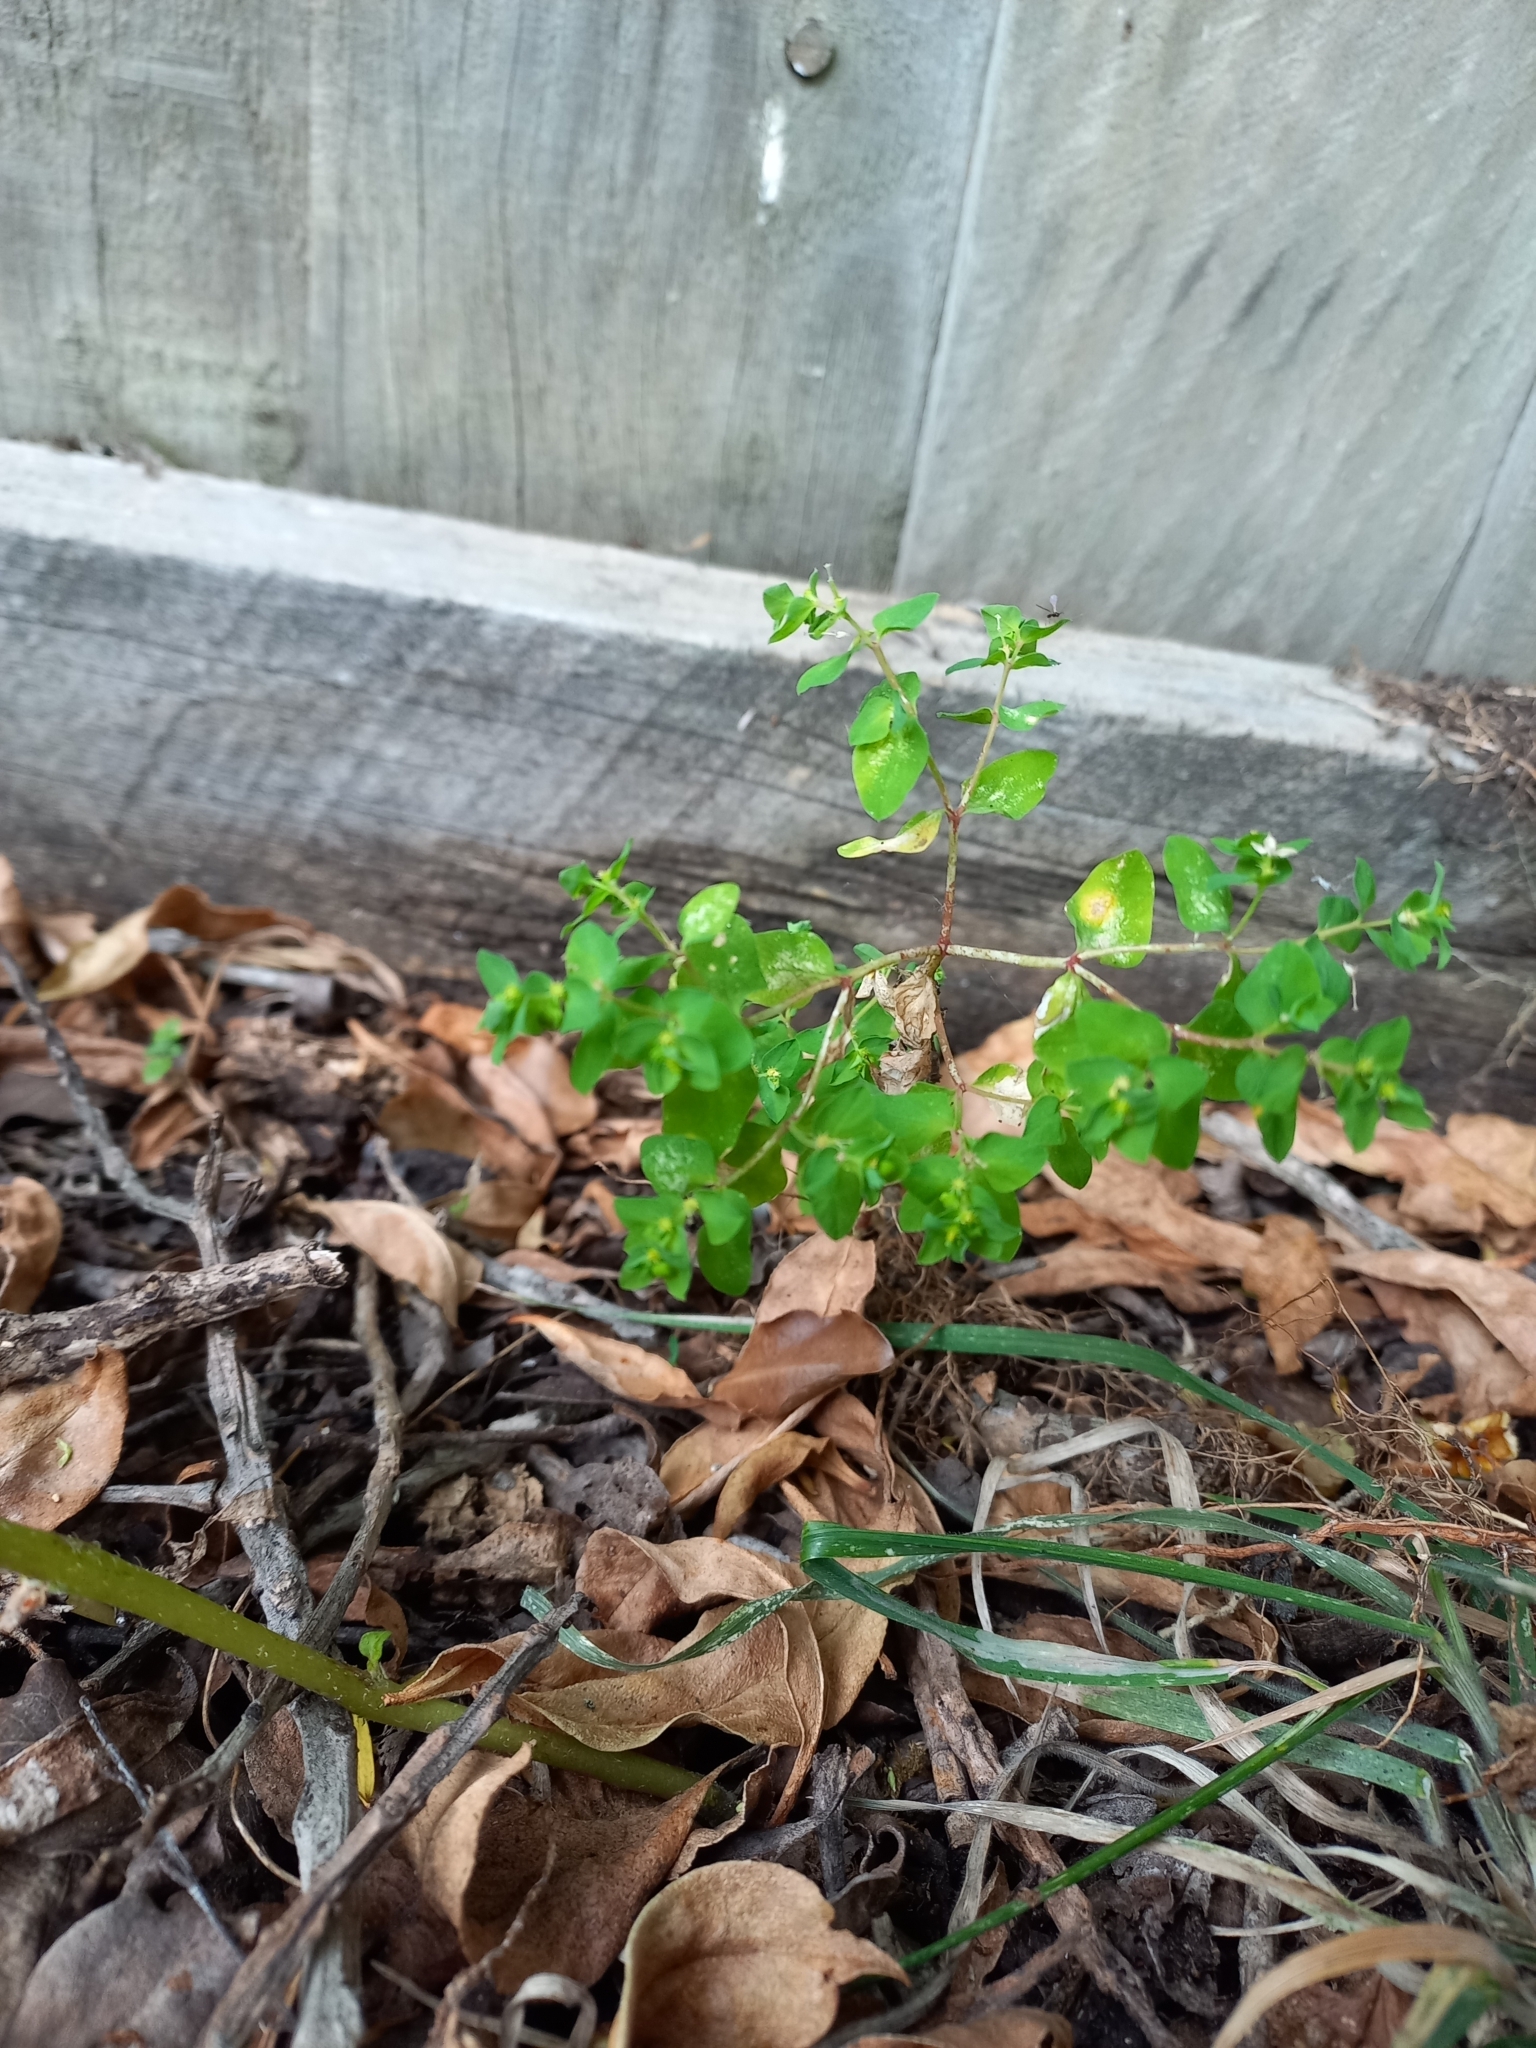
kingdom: Plantae
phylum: Tracheophyta
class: Magnoliopsida
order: Malpighiales
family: Euphorbiaceae
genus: Euphorbia
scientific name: Euphorbia peplus
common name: Petty spurge
